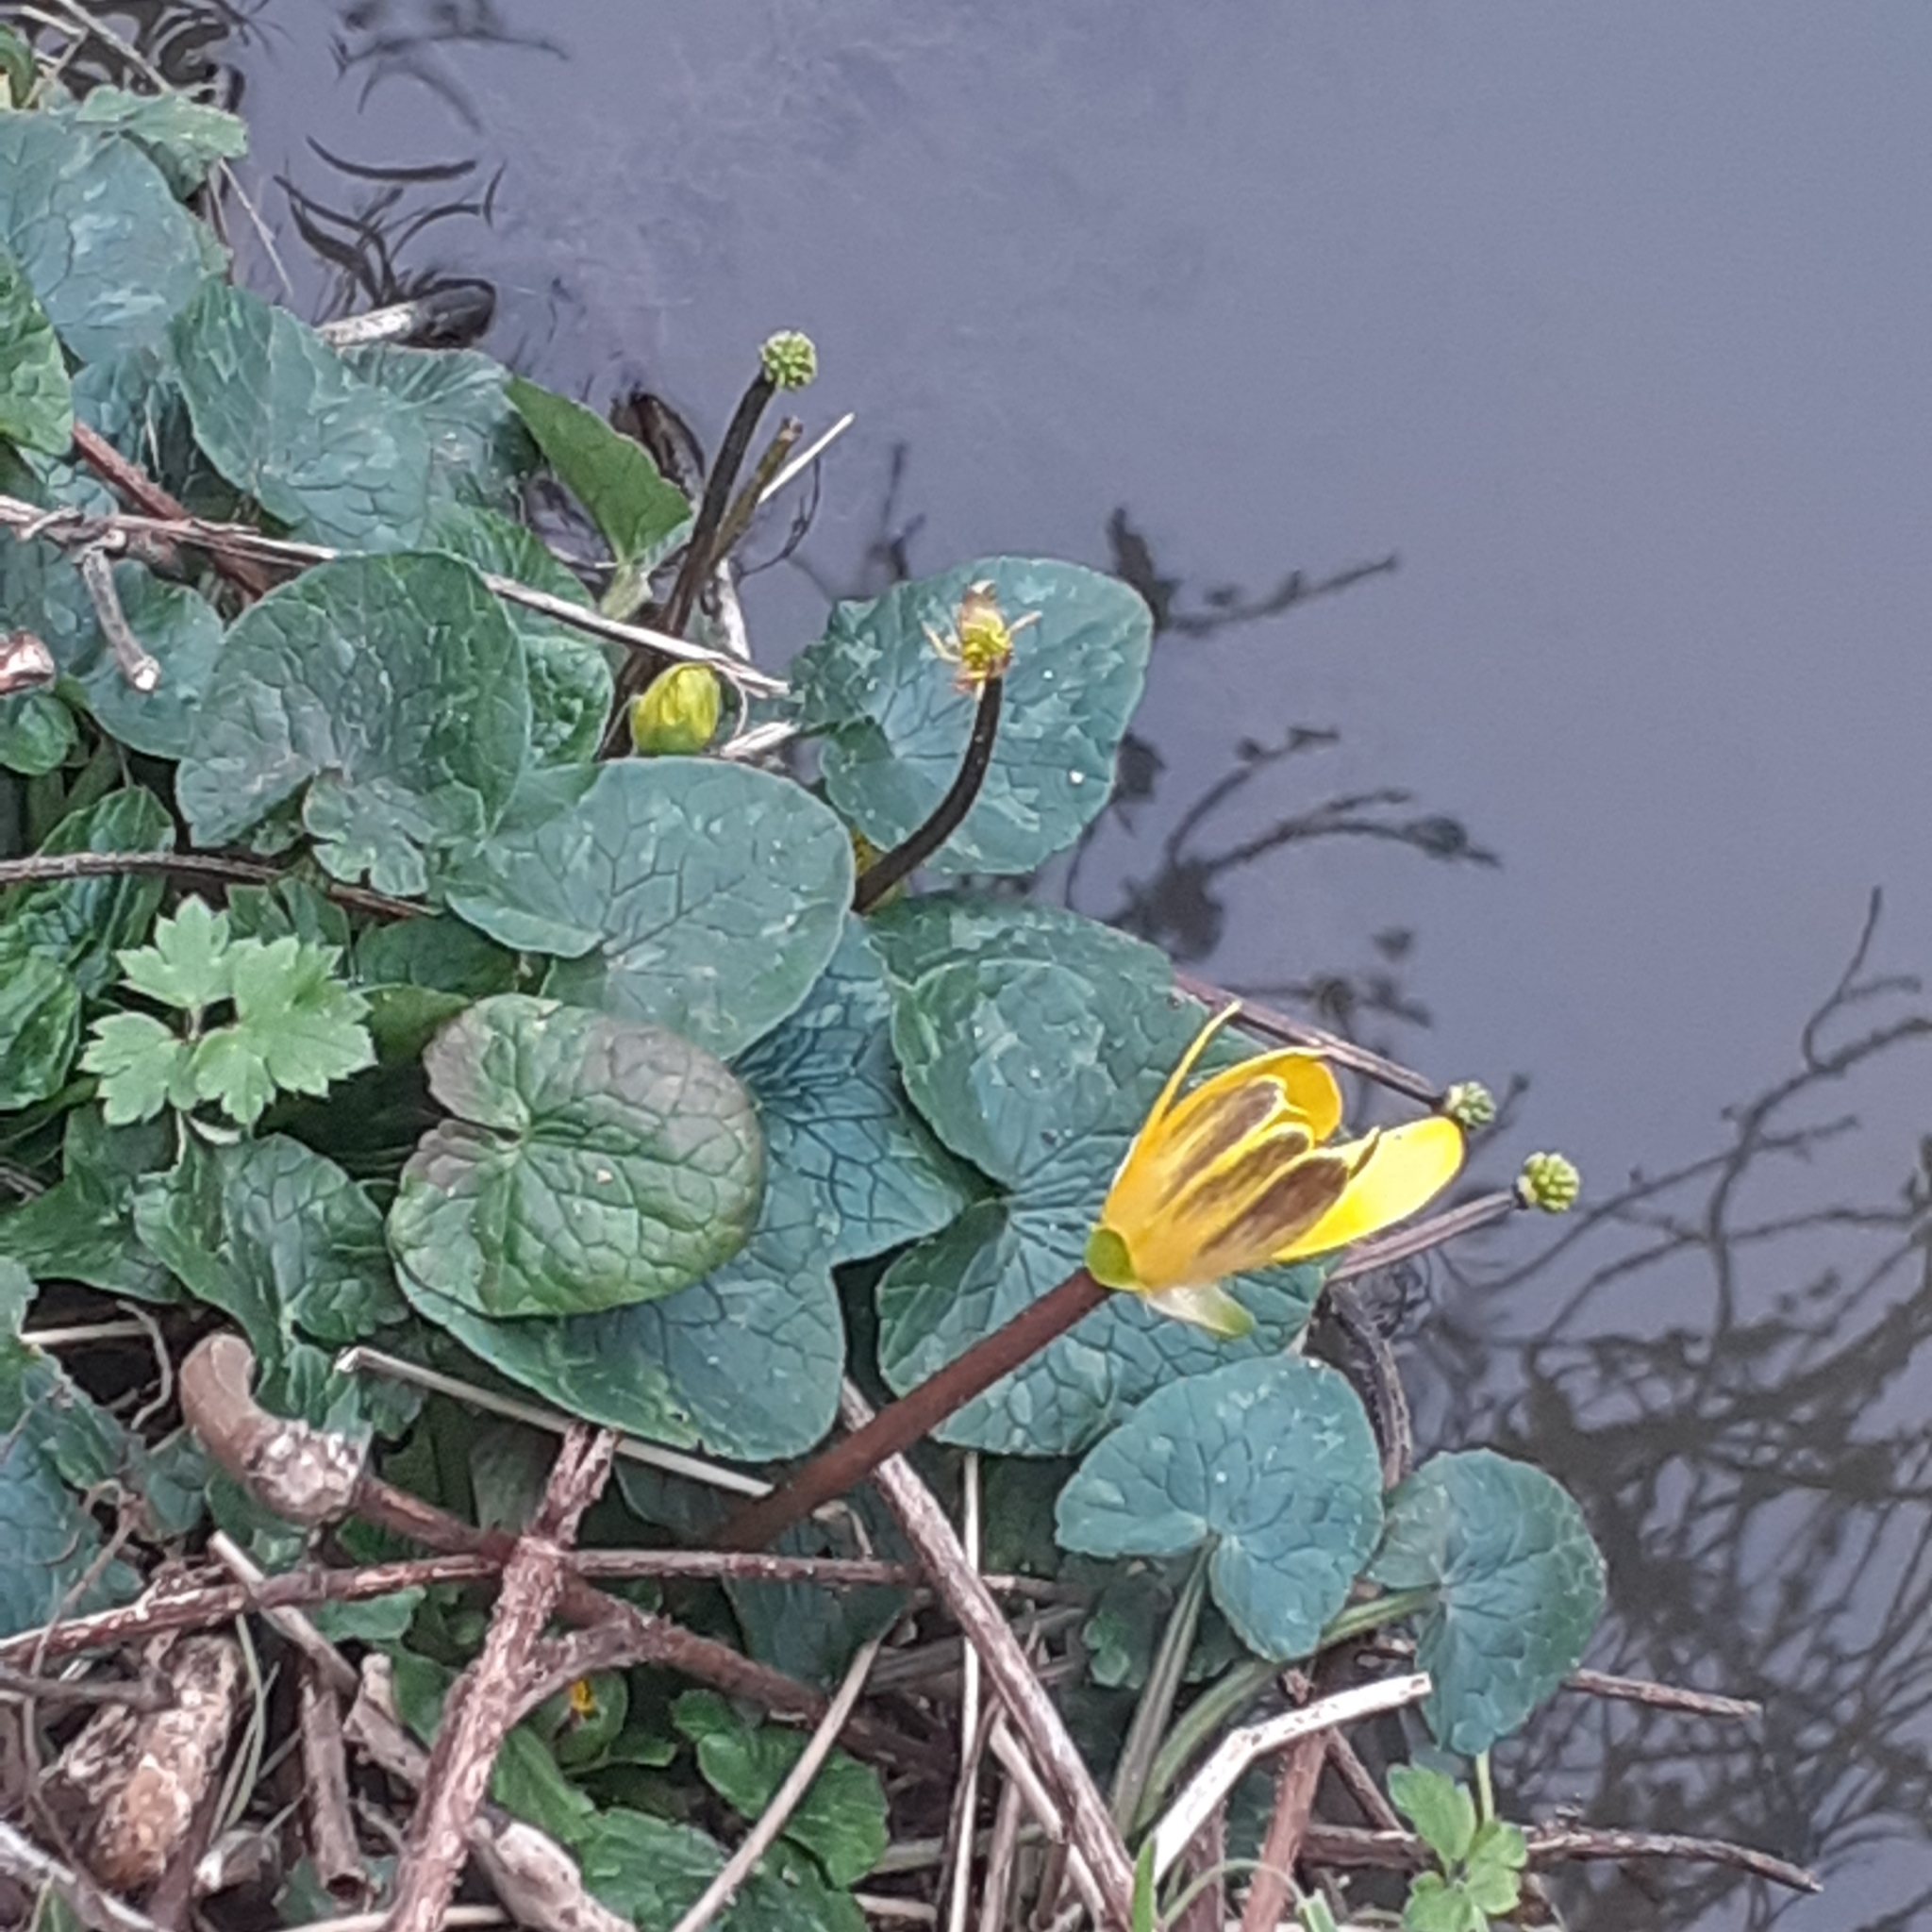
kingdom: Plantae
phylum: Tracheophyta
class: Magnoliopsida
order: Ranunculales
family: Ranunculaceae
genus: Ficaria
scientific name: Ficaria verna
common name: Lesser celandine
